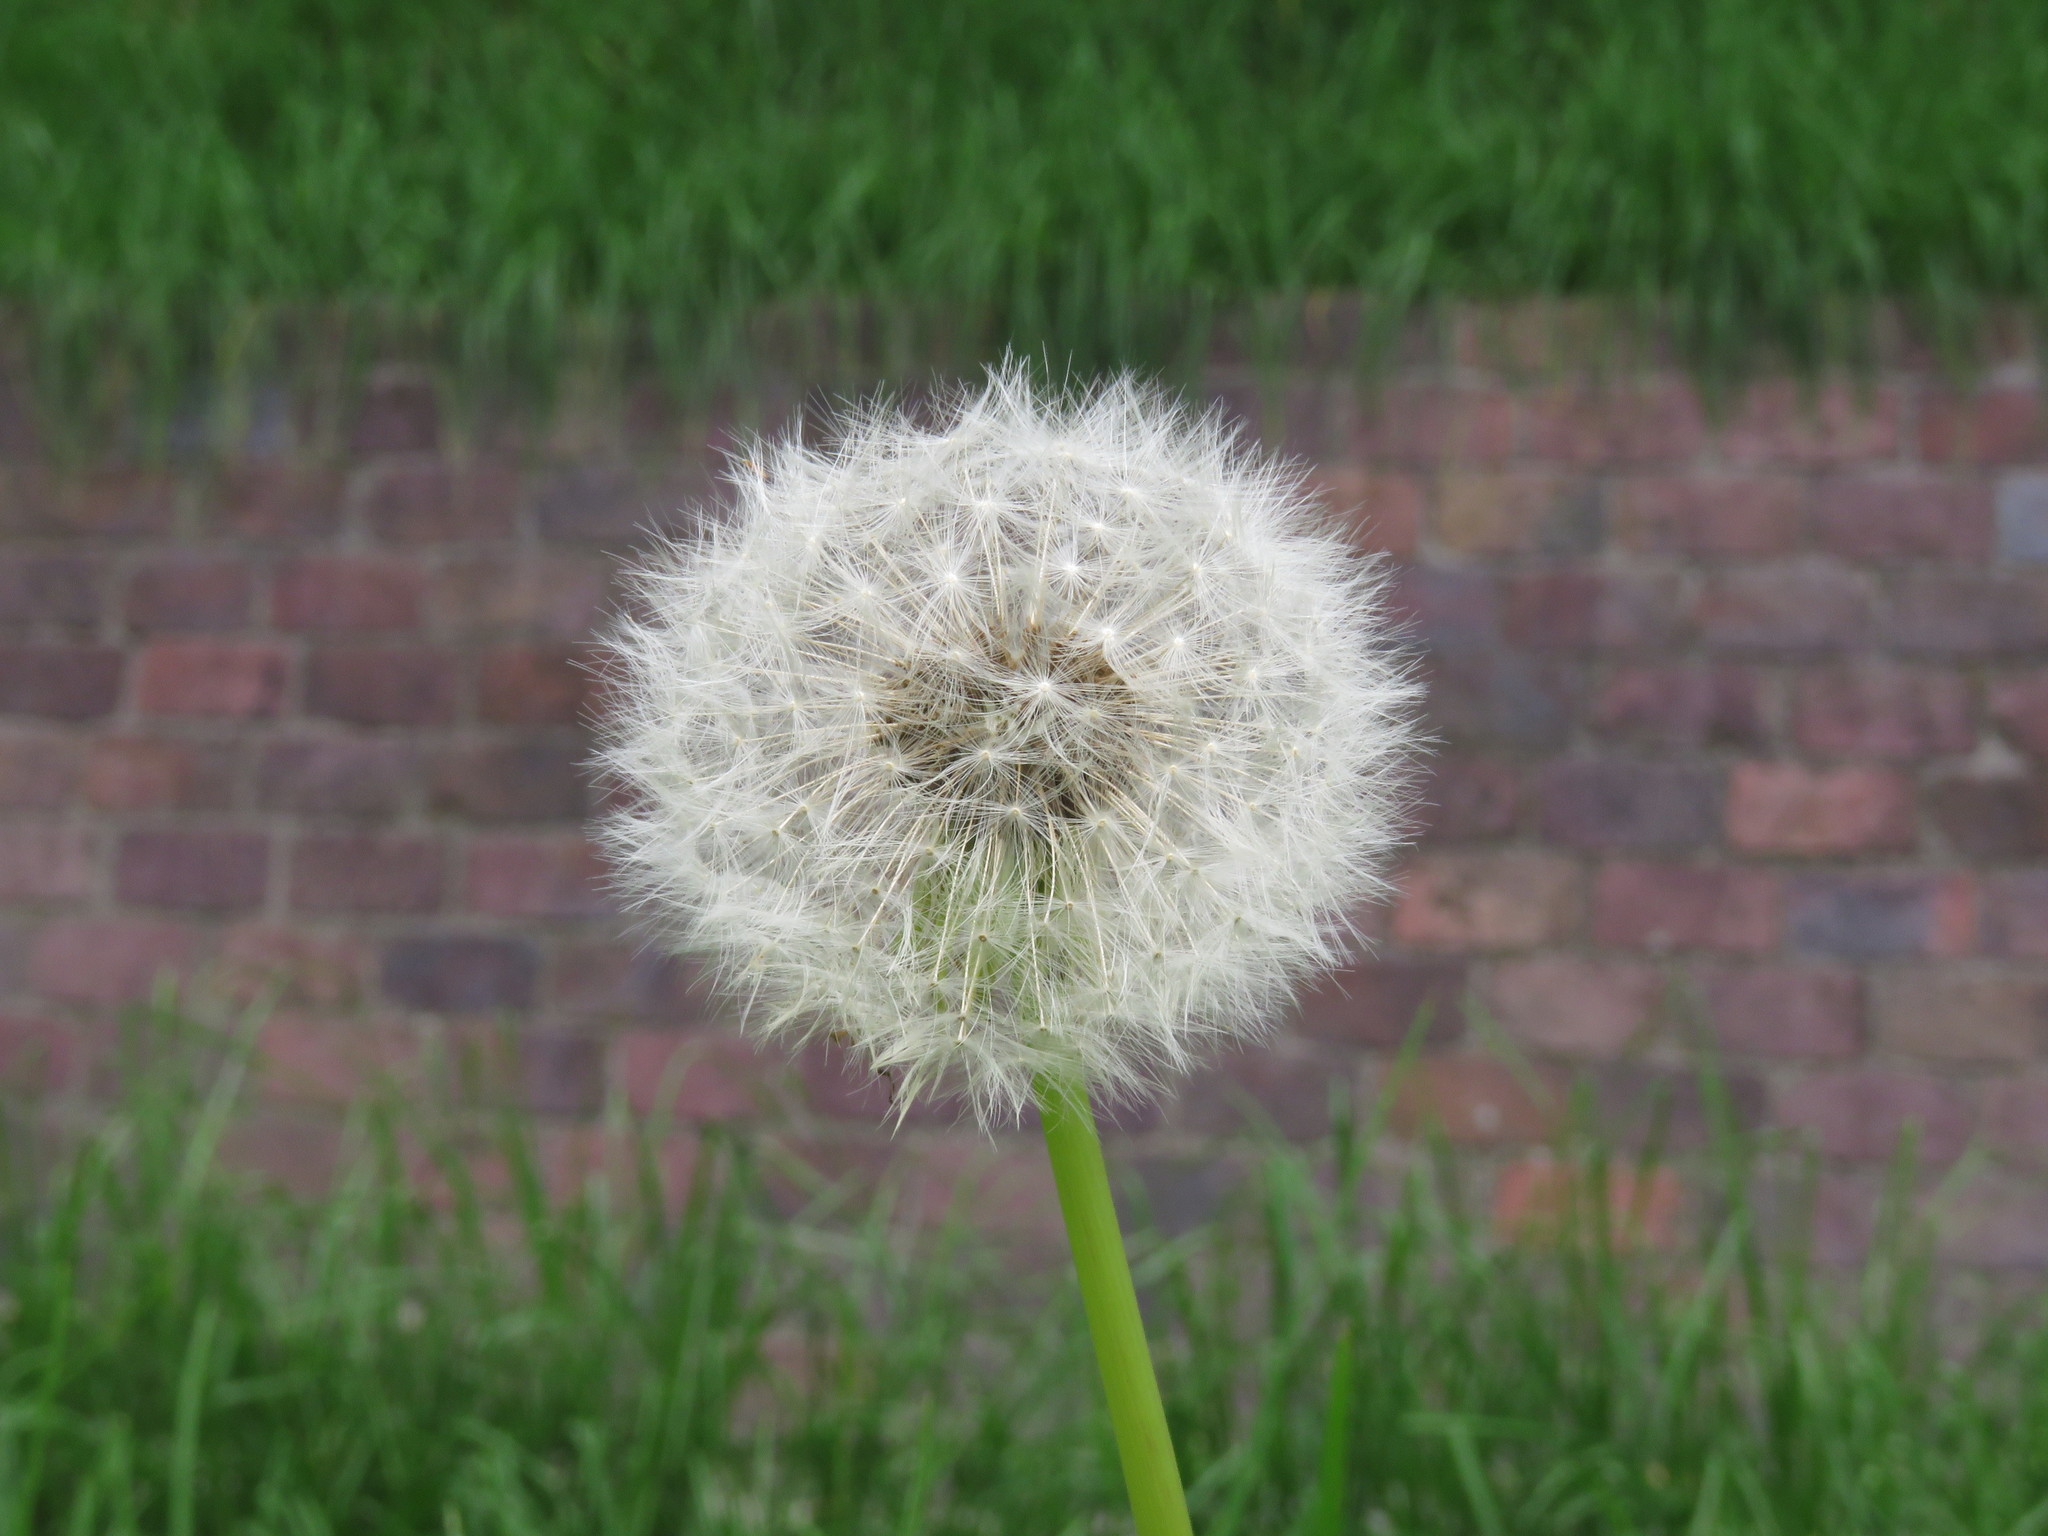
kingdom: Plantae
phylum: Tracheophyta
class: Magnoliopsida
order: Asterales
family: Asteraceae
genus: Taraxacum
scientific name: Taraxacum officinale
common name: Common dandelion
